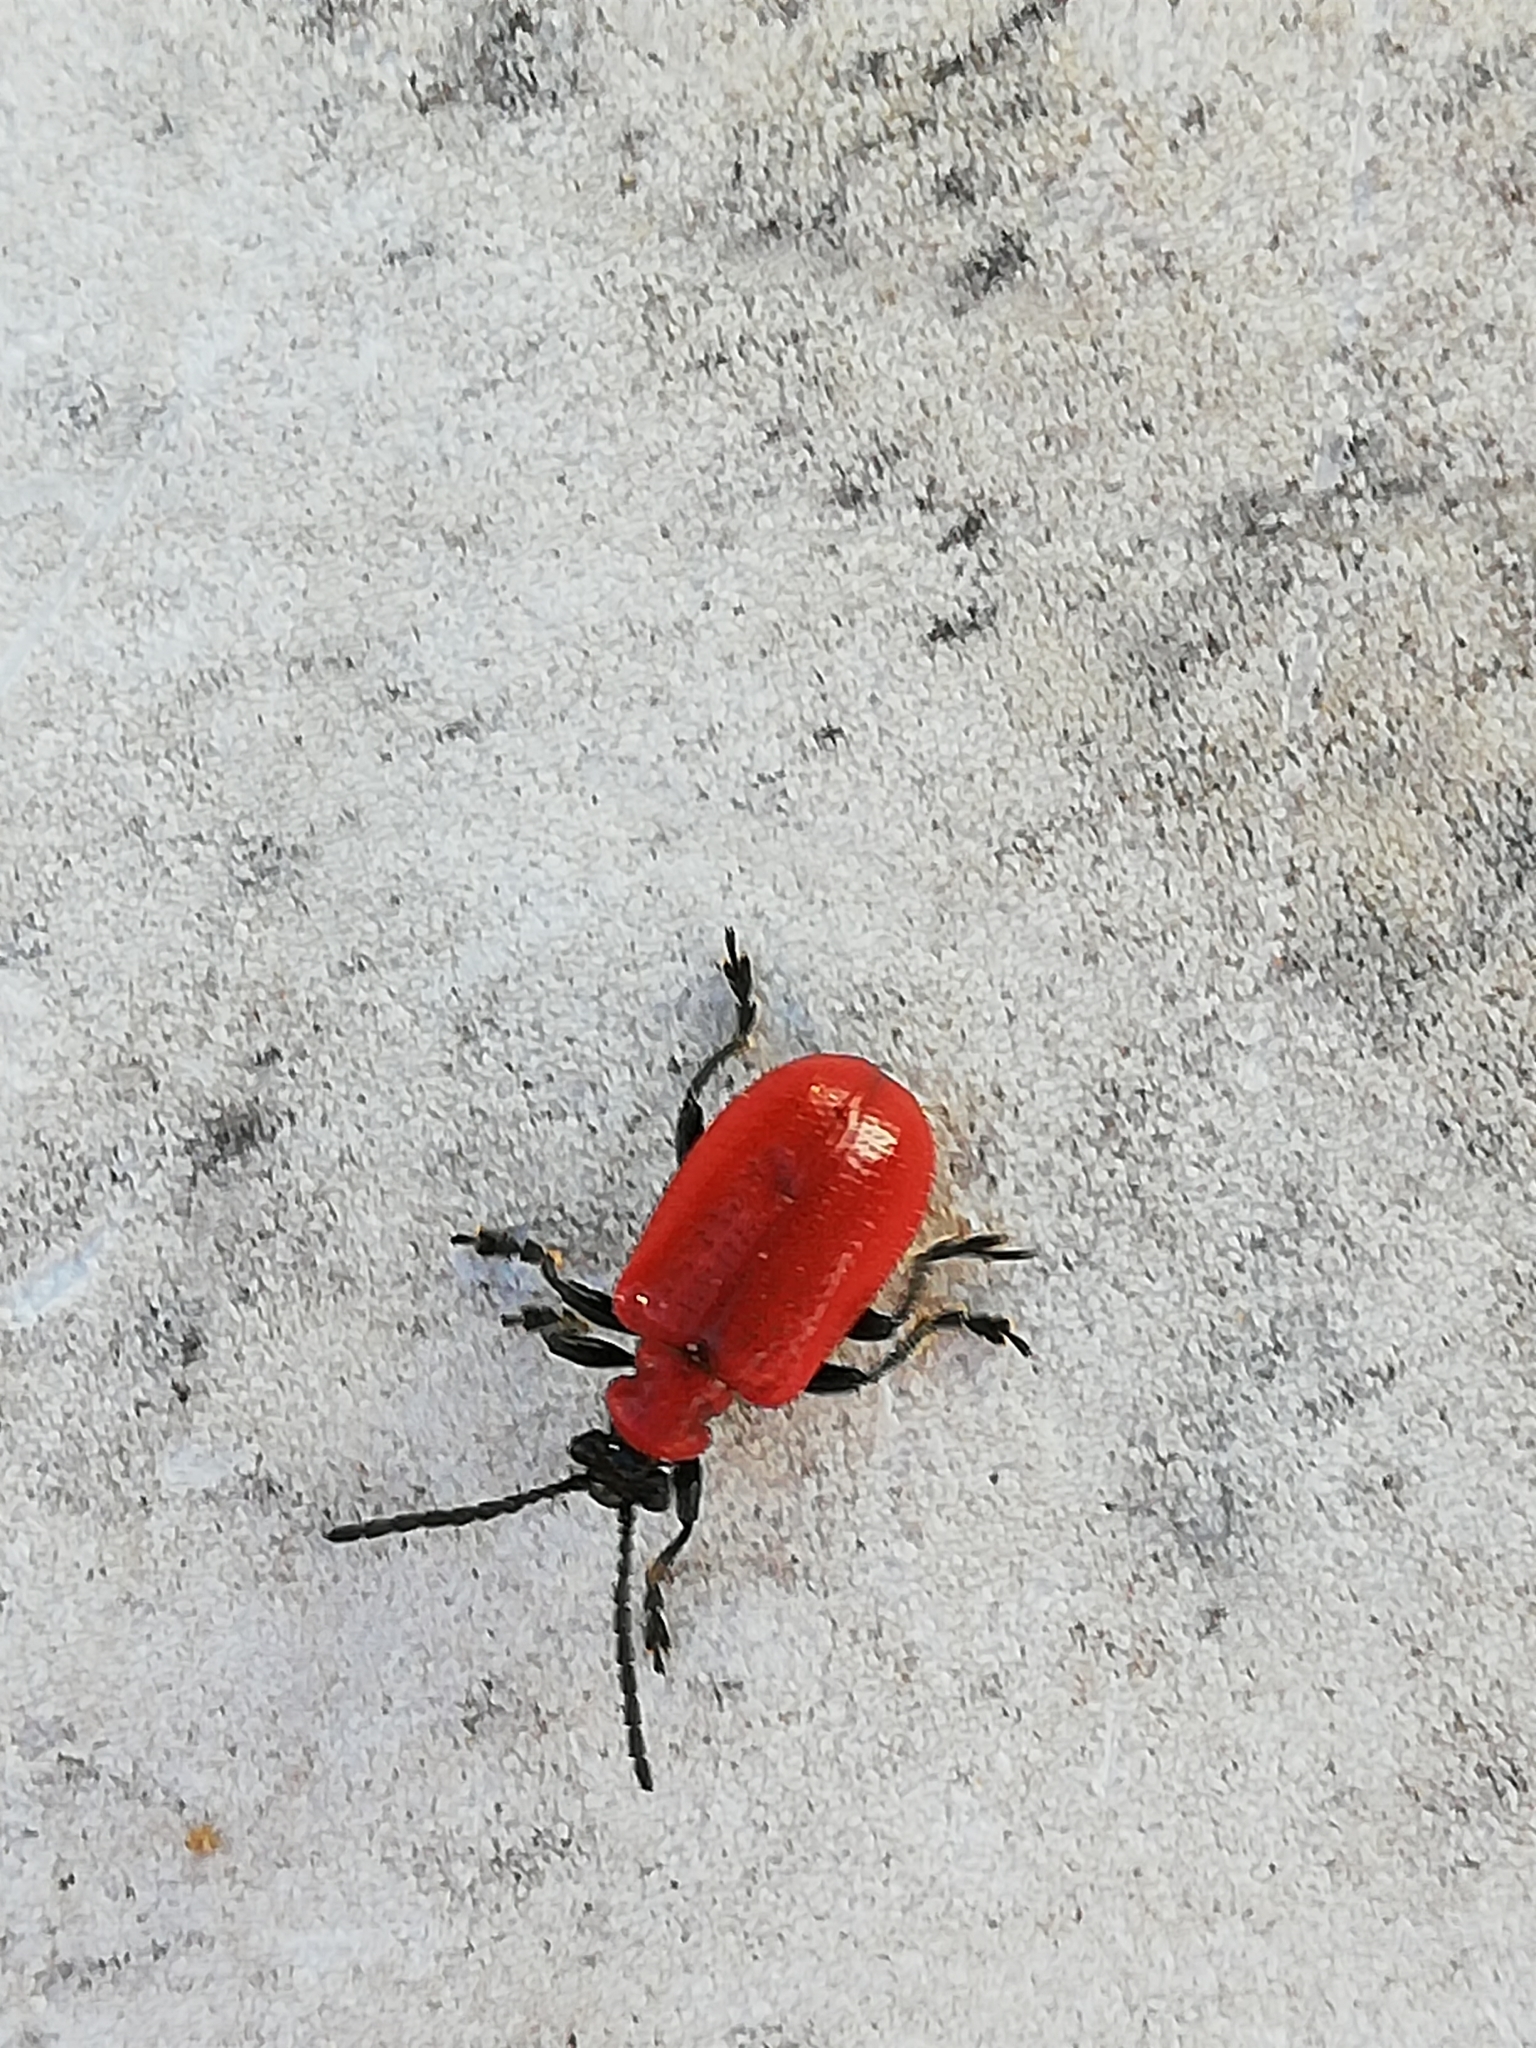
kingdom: Animalia
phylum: Arthropoda
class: Insecta
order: Coleoptera
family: Chrysomelidae
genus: Lilioceris
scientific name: Lilioceris lilii
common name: Lily beetle
